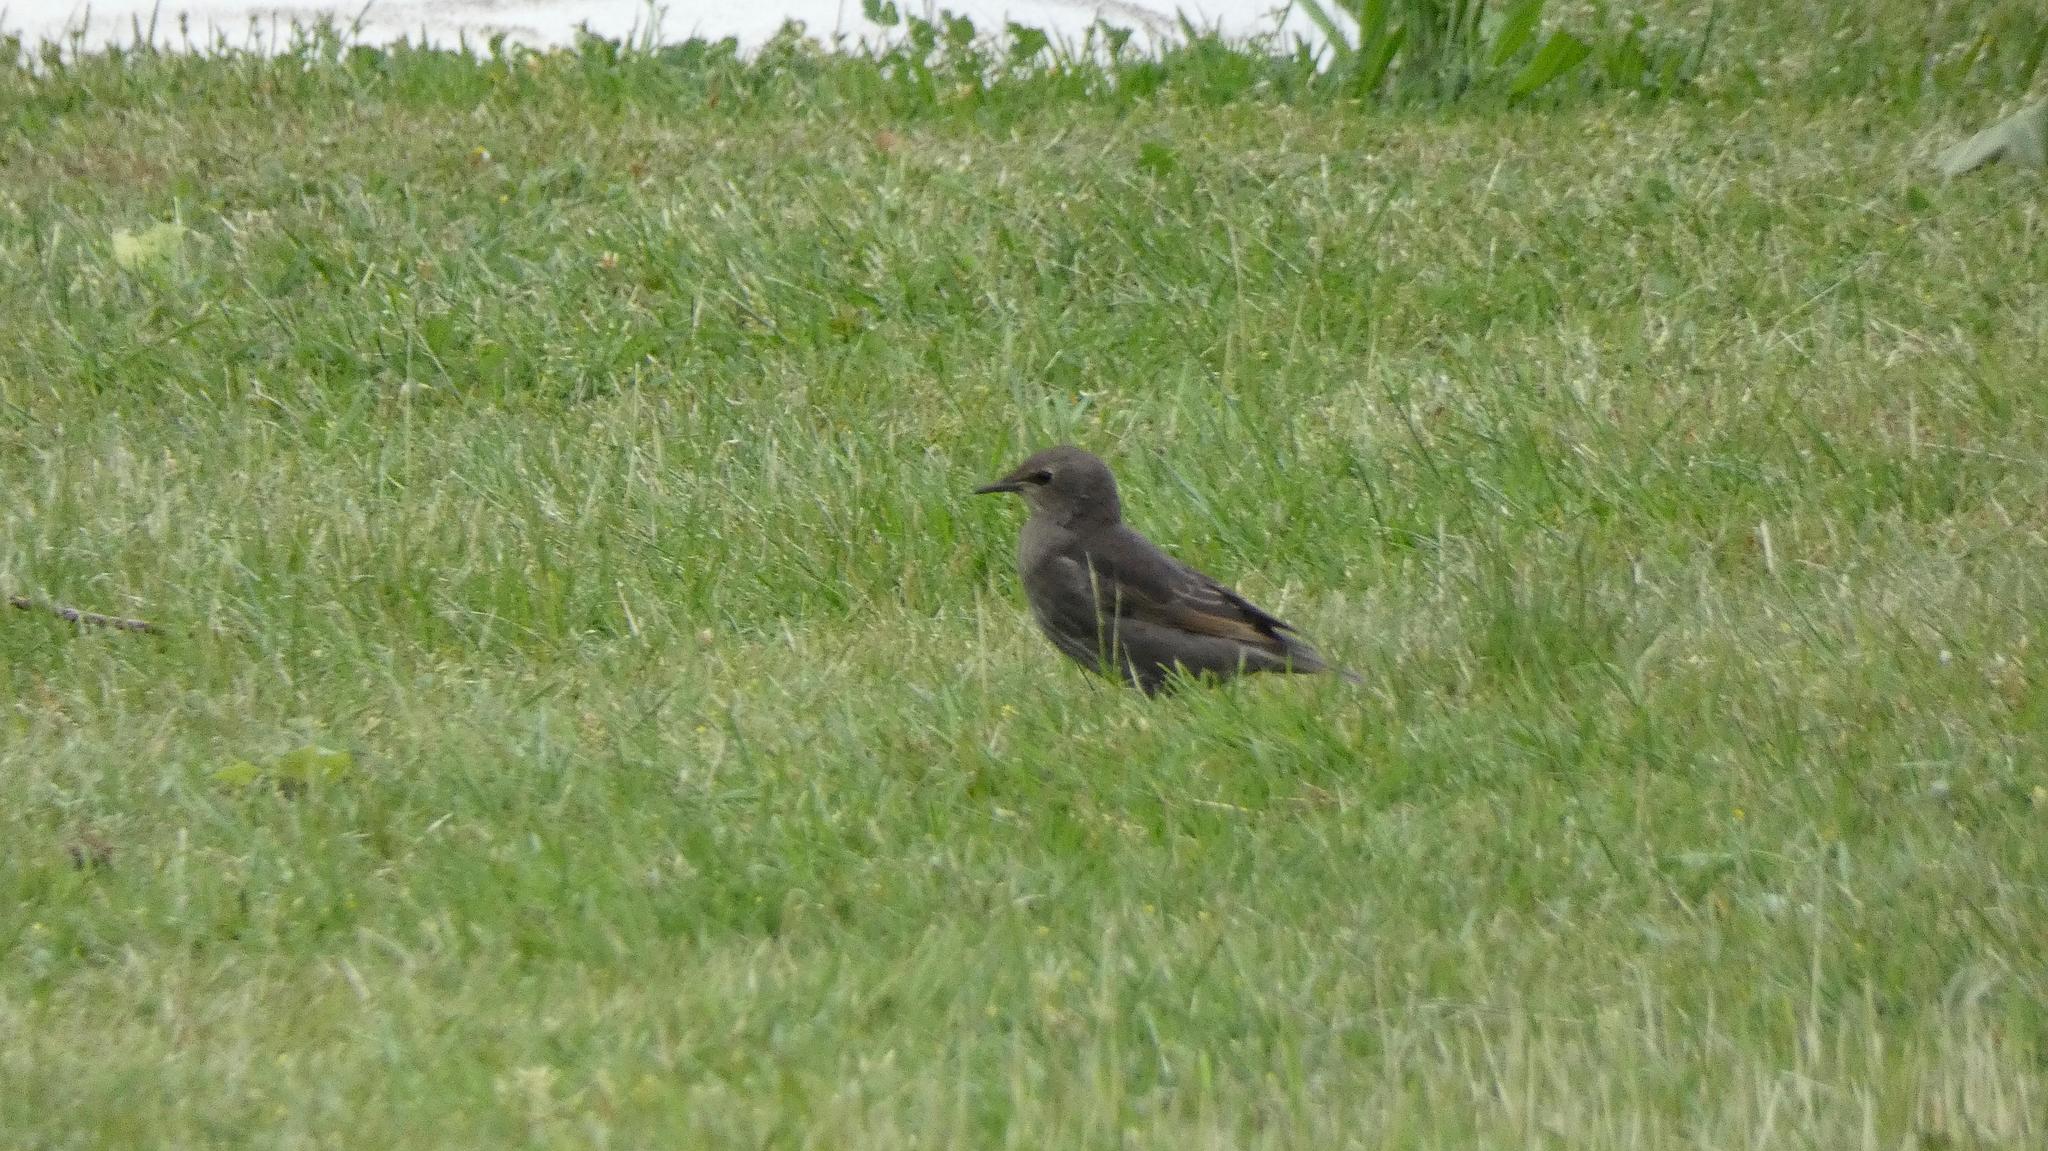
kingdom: Animalia
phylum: Chordata
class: Aves
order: Passeriformes
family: Sturnidae
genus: Sturnus
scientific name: Sturnus vulgaris
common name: Common starling
